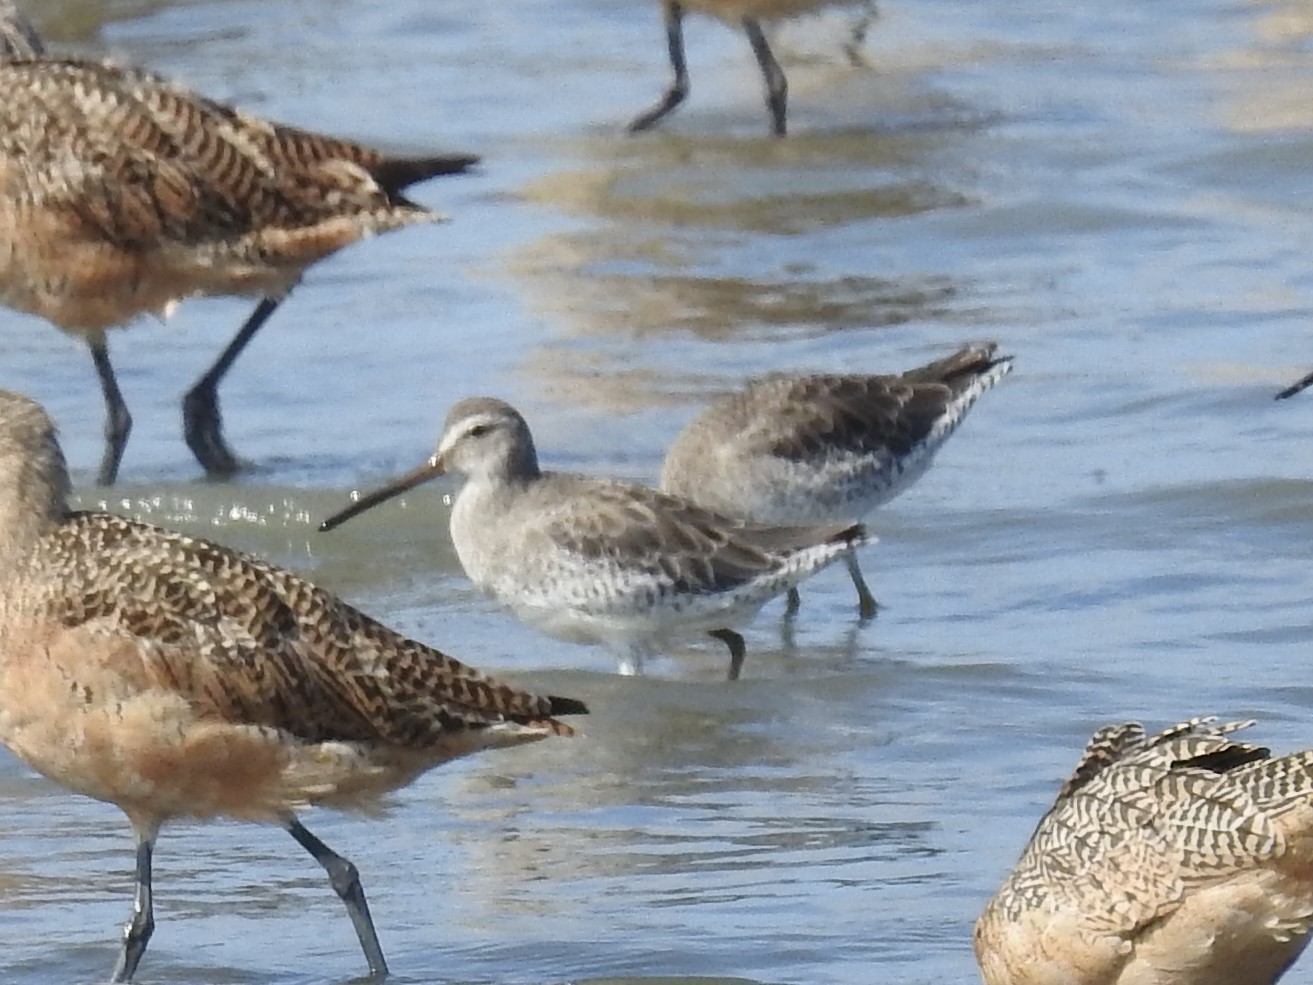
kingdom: Animalia
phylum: Chordata
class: Aves
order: Charadriiformes
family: Scolopacidae
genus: Limnodromus
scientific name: Limnodromus griseus
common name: Short-billed dowitcher
